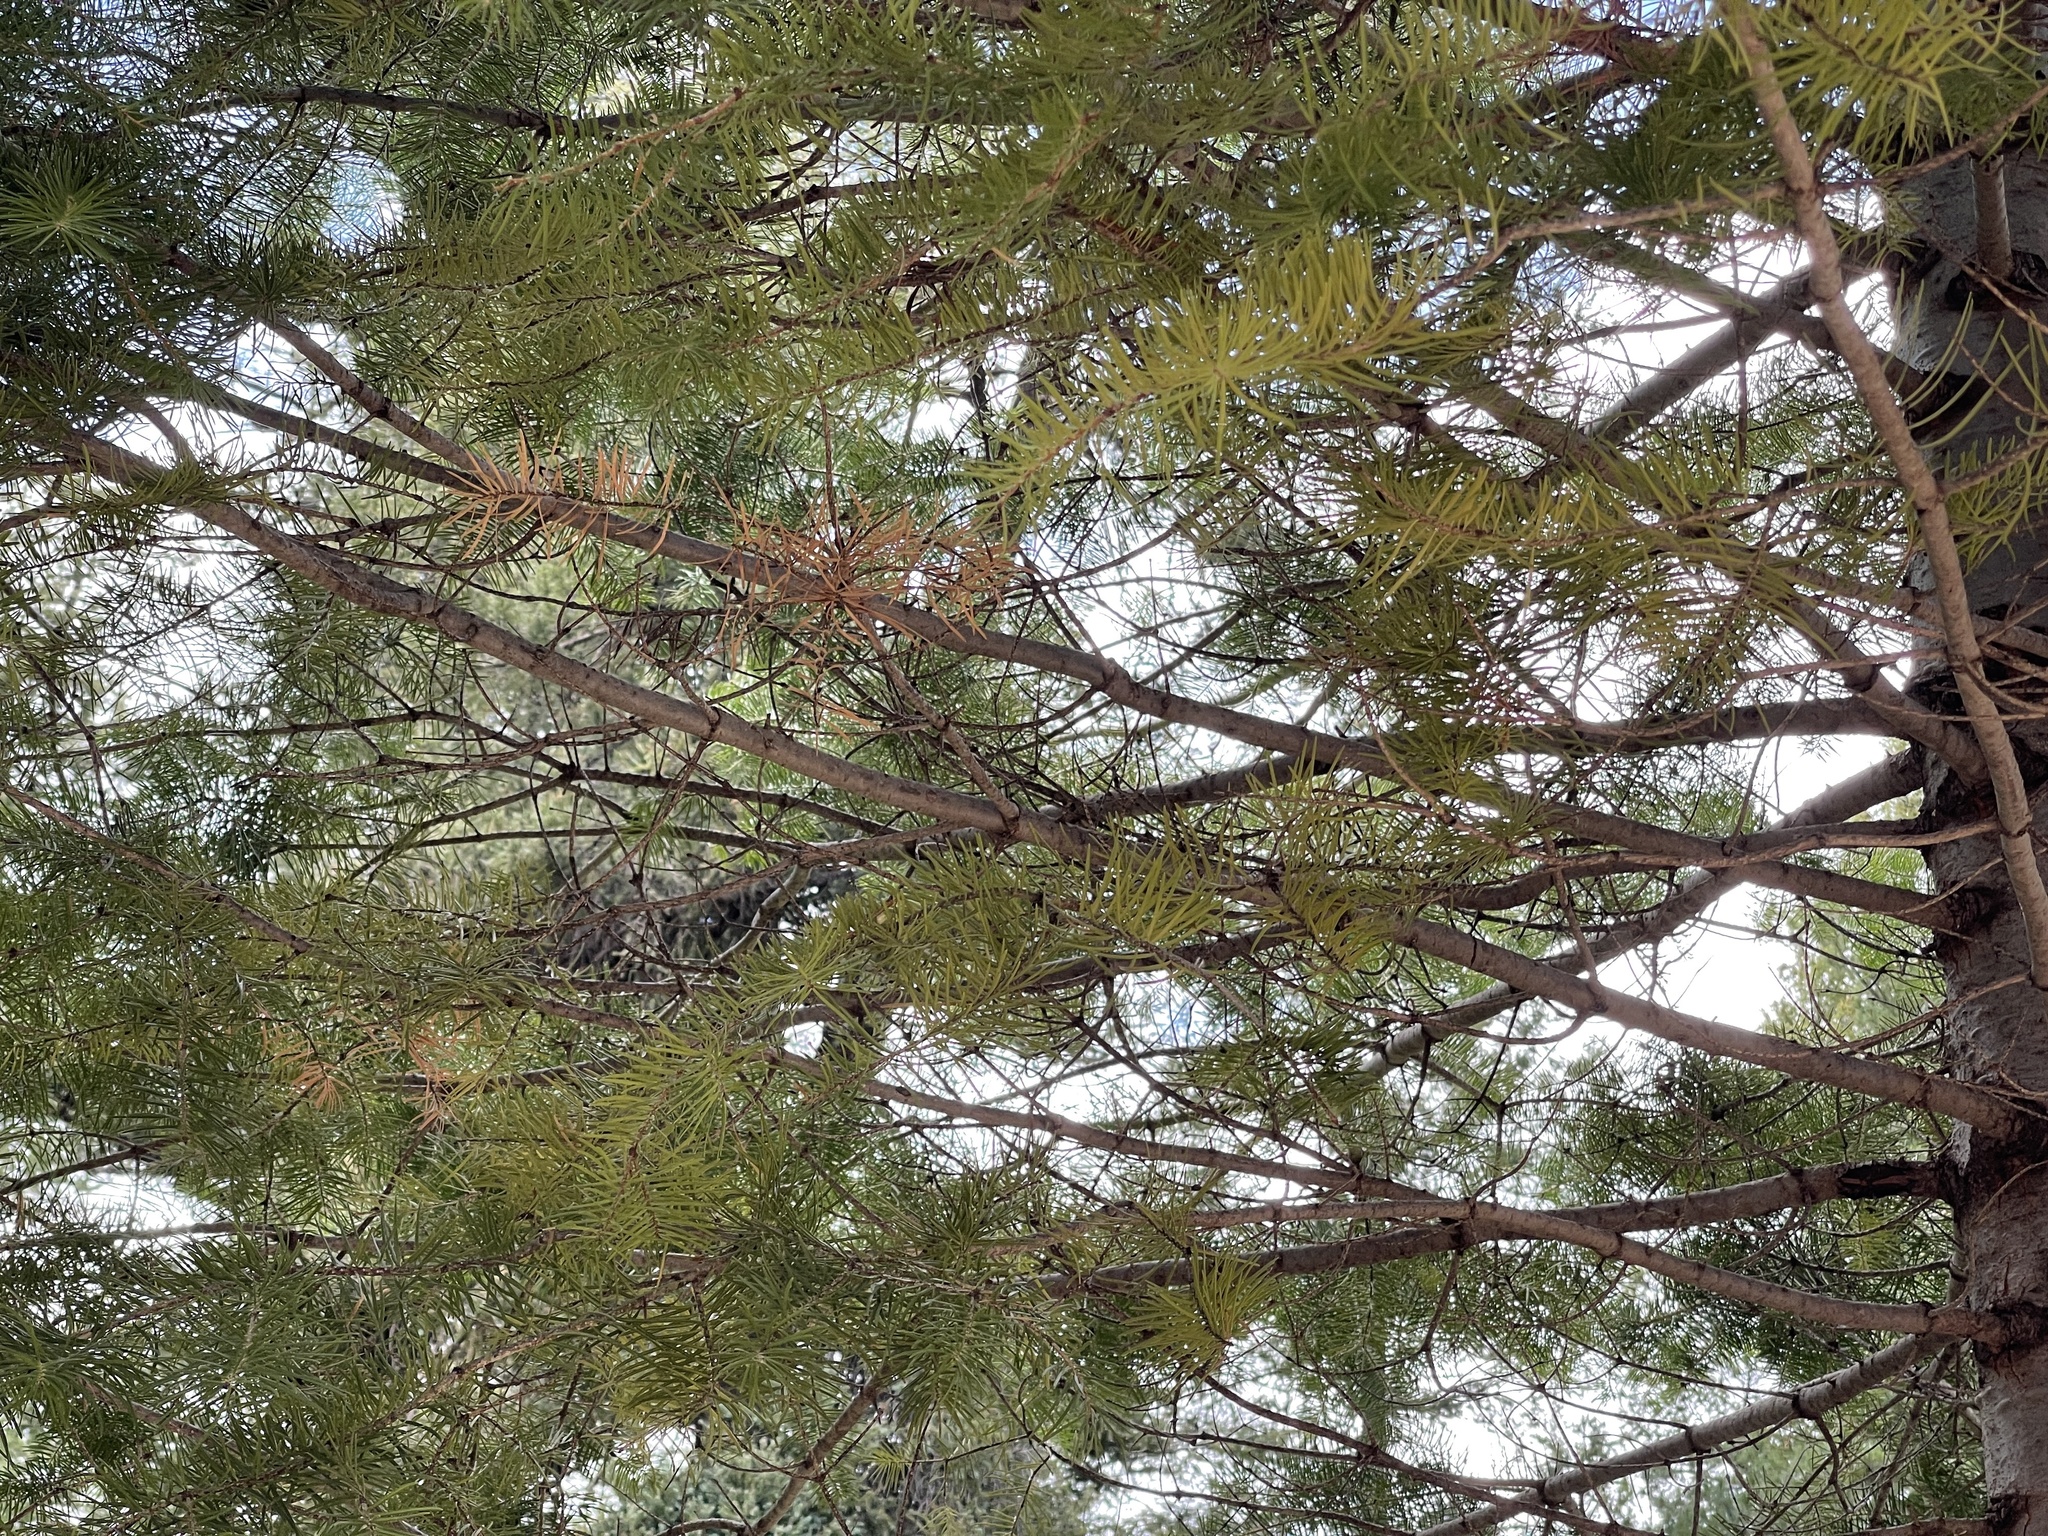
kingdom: Plantae
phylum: Tracheophyta
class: Pinopsida
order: Pinales
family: Pinaceae
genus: Abies
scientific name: Abies concolor
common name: Colorado fir
